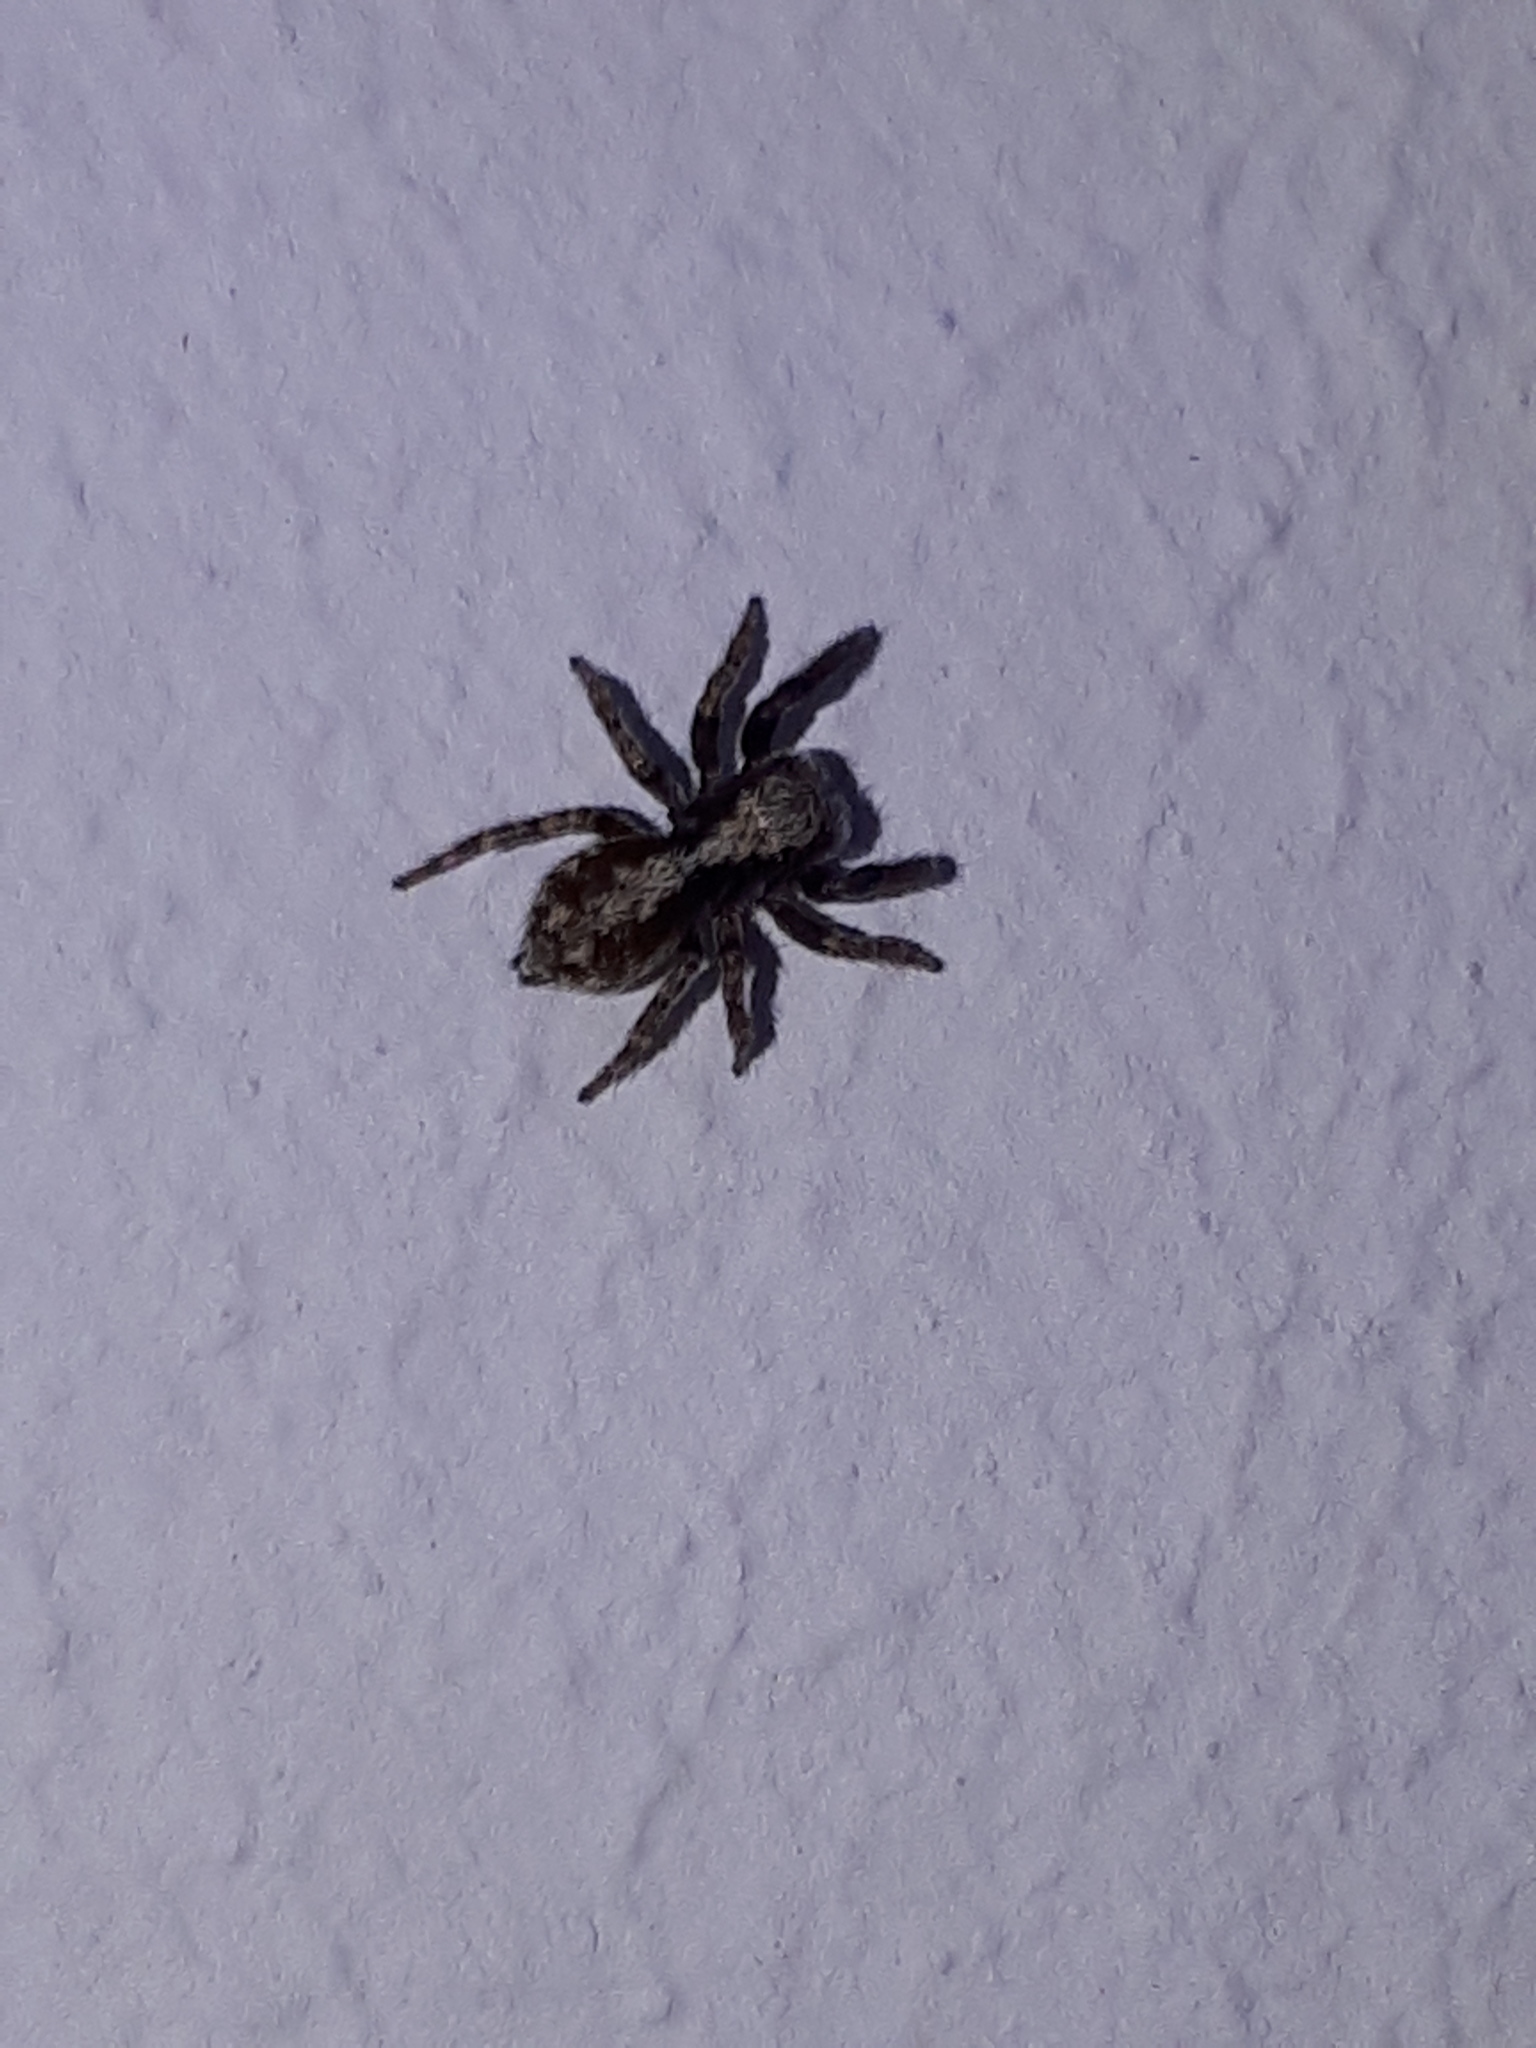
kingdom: Animalia
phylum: Arthropoda
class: Arachnida
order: Araneae
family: Salticidae
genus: Pseudeuophrys
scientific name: Pseudeuophrys lanigera
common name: Jumping spider
